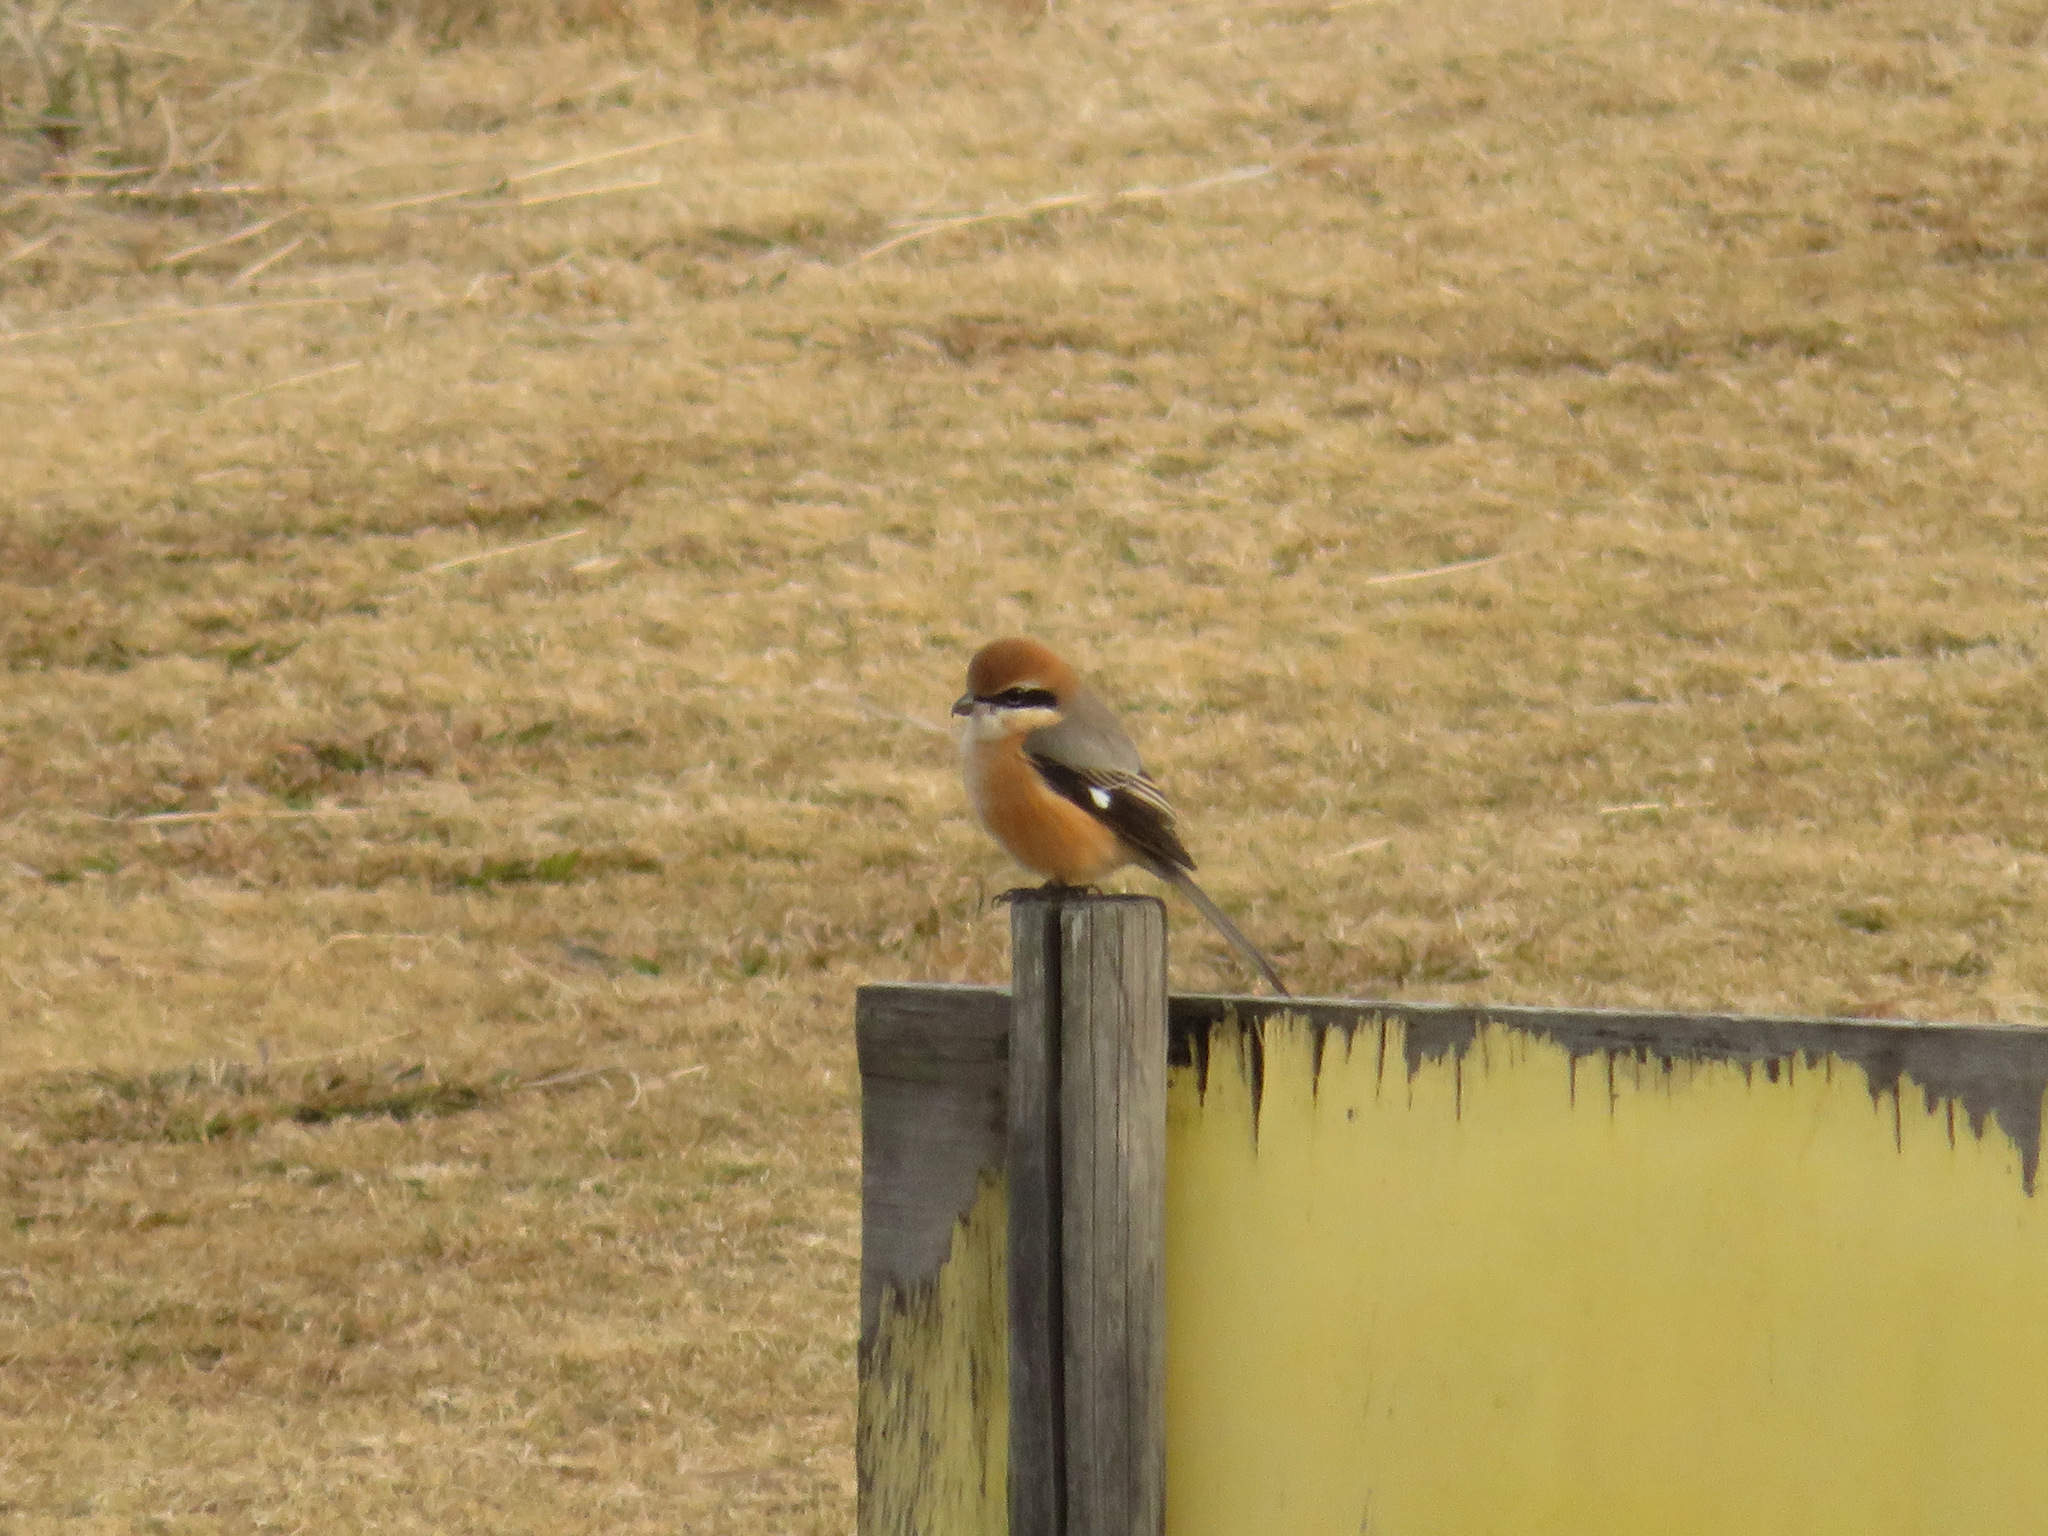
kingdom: Animalia
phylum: Chordata
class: Aves
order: Passeriformes
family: Laniidae
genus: Lanius
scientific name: Lanius bucephalus
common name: Bull-headed shrike
